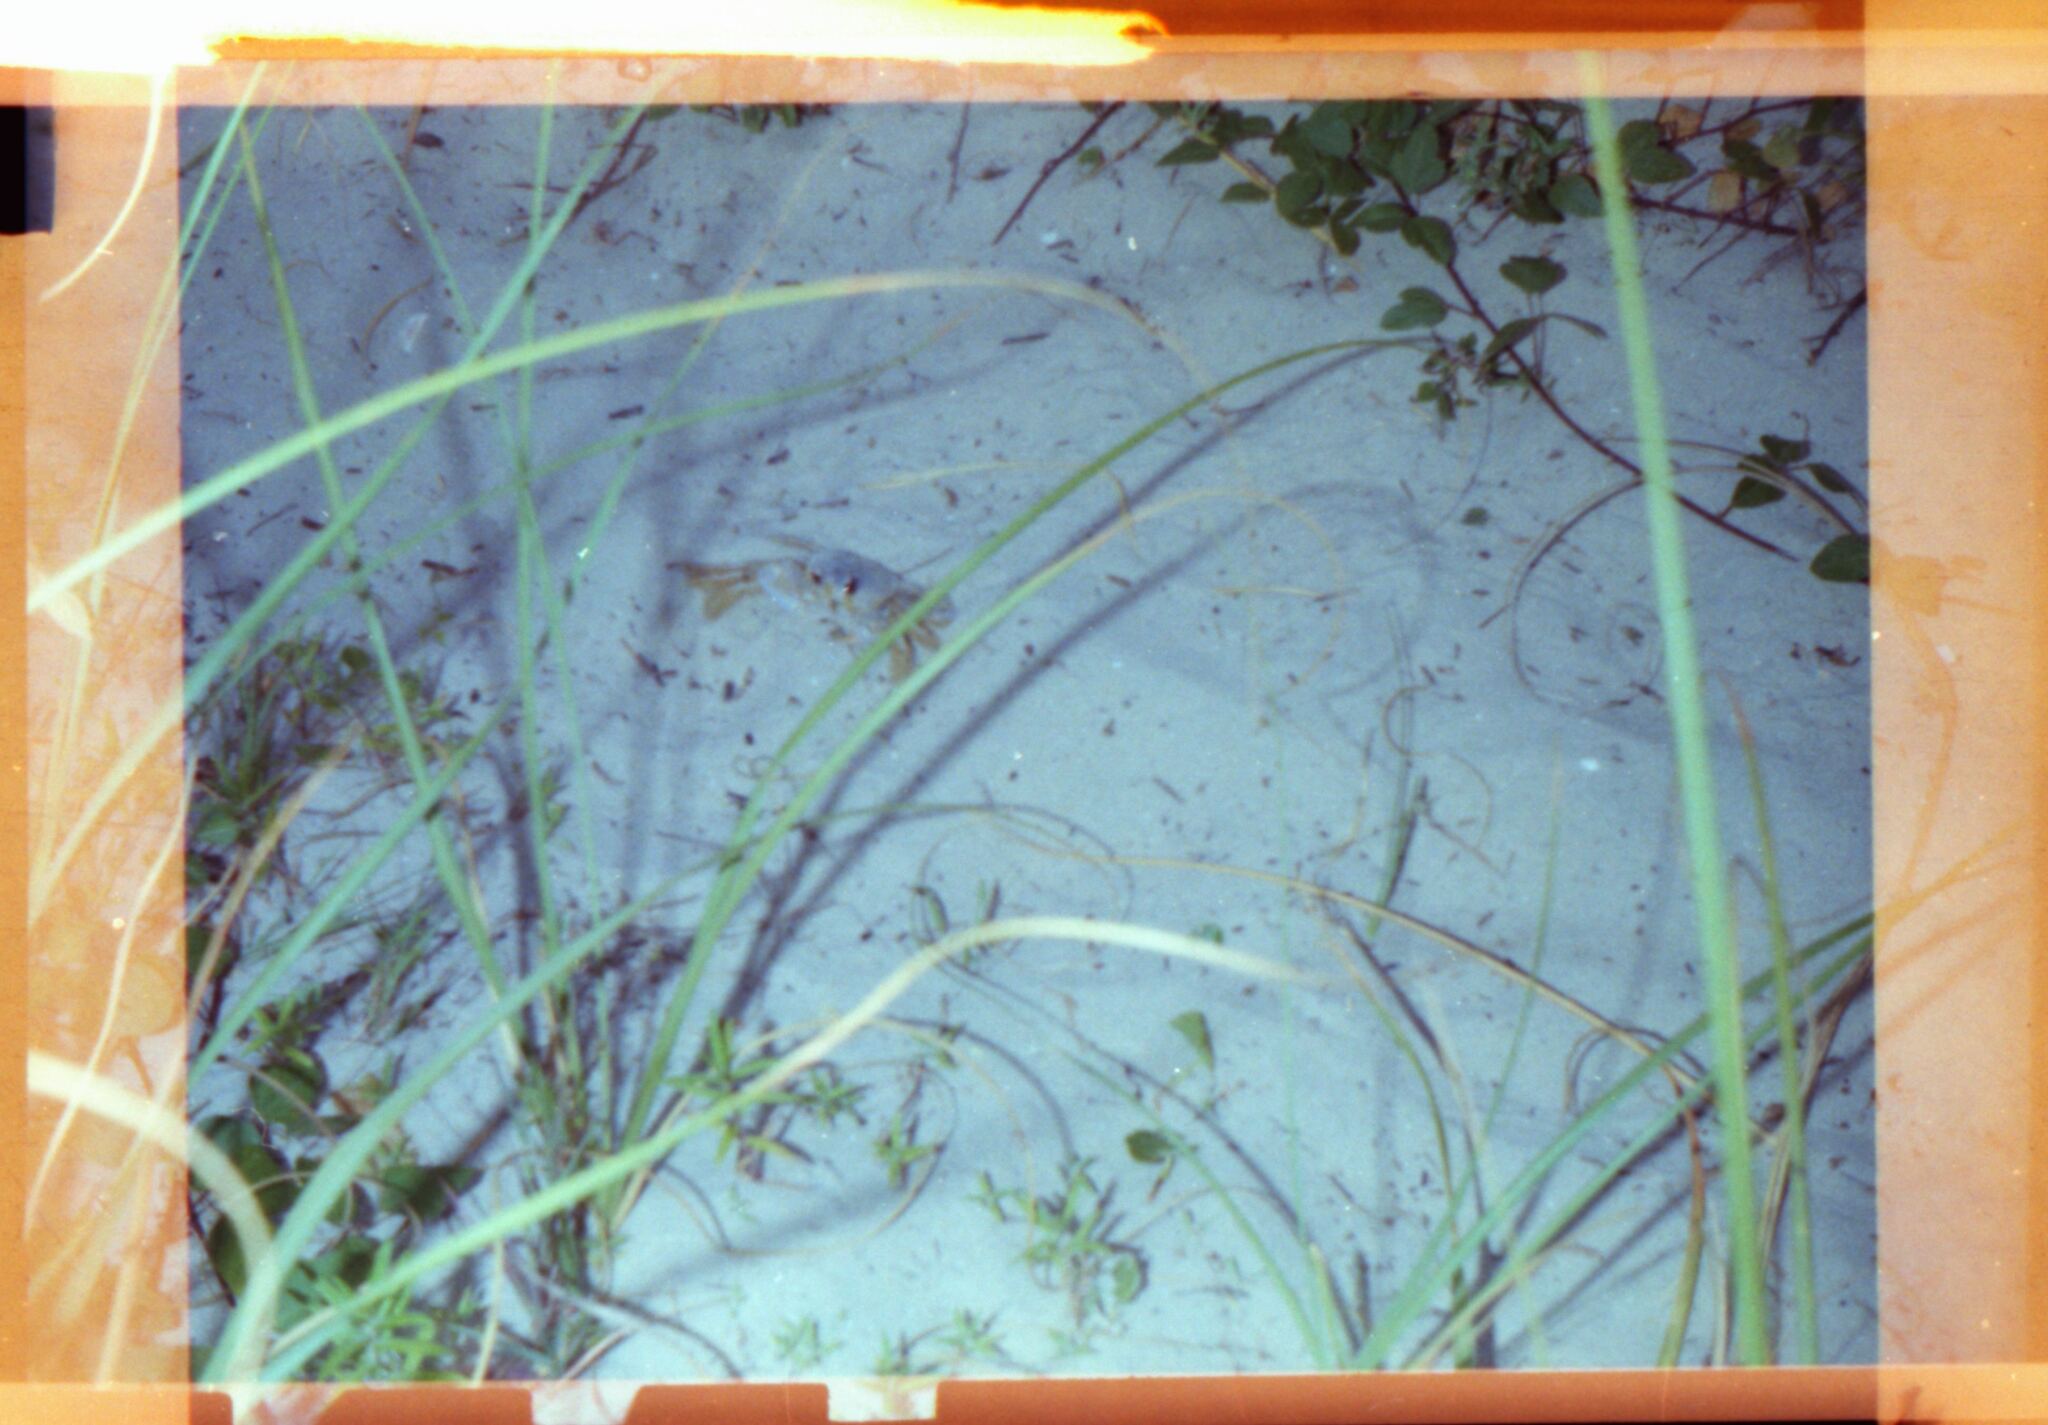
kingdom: Animalia
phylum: Arthropoda
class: Malacostraca
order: Decapoda
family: Ocypodidae
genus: Ocypode
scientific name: Ocypode quadrata
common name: Ghost crab
